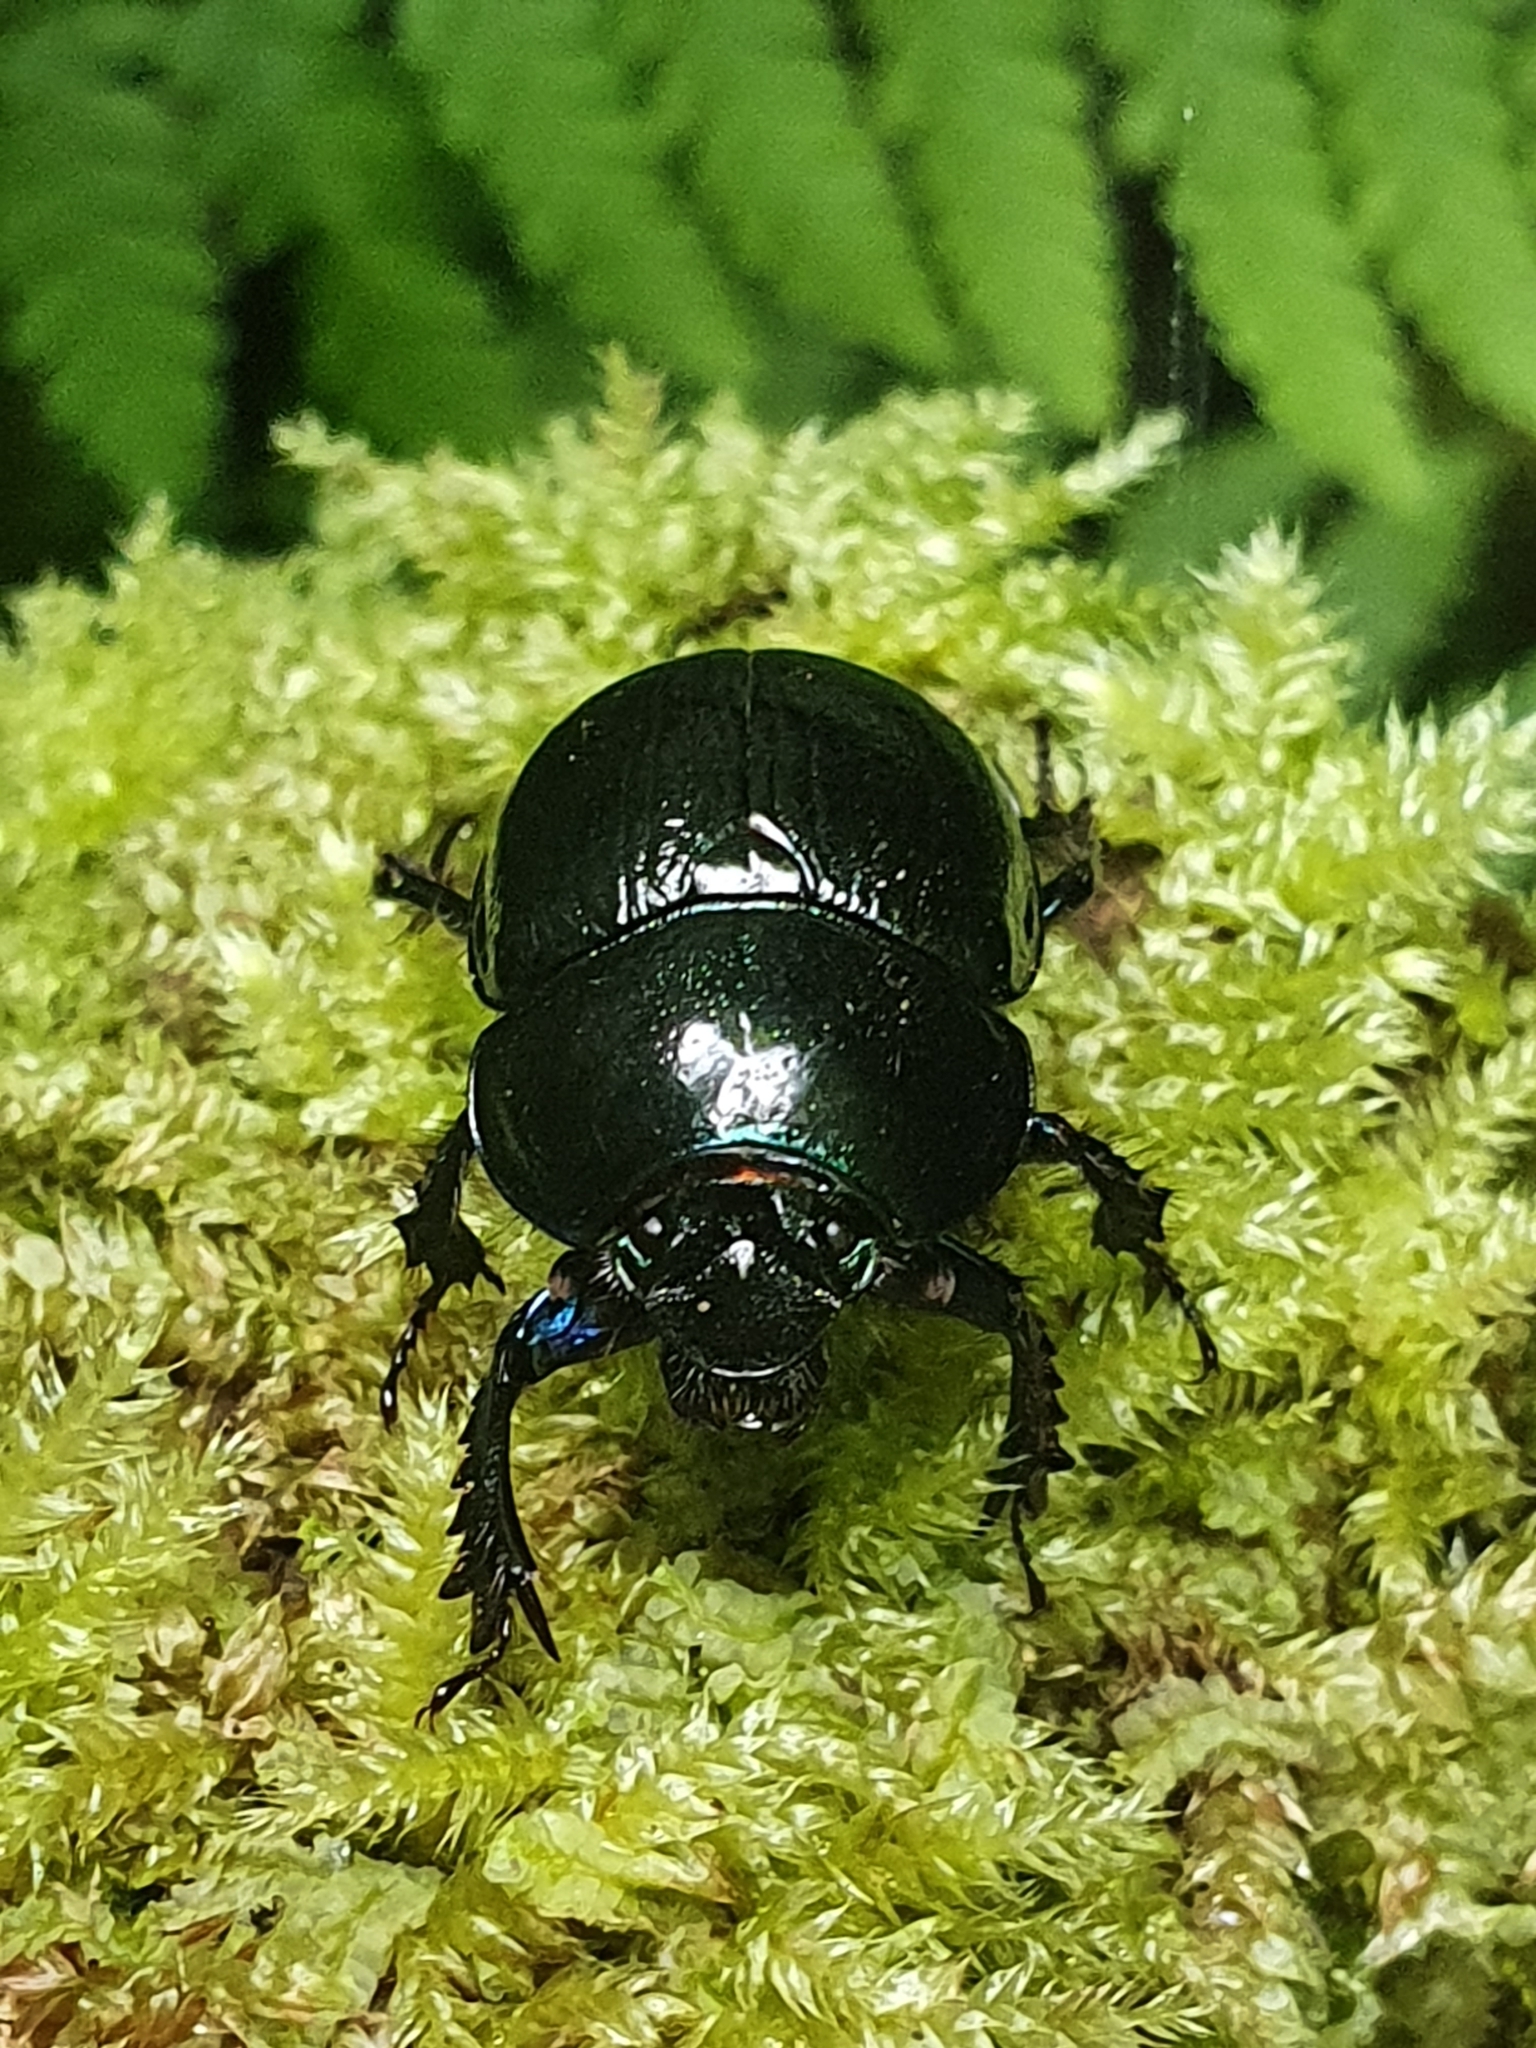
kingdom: Animalia
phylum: Arthropoda
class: Insecta
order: Coleoptera
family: Geotrupidae
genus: Anoplotrupes
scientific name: Anoplotrupes stercorosus
